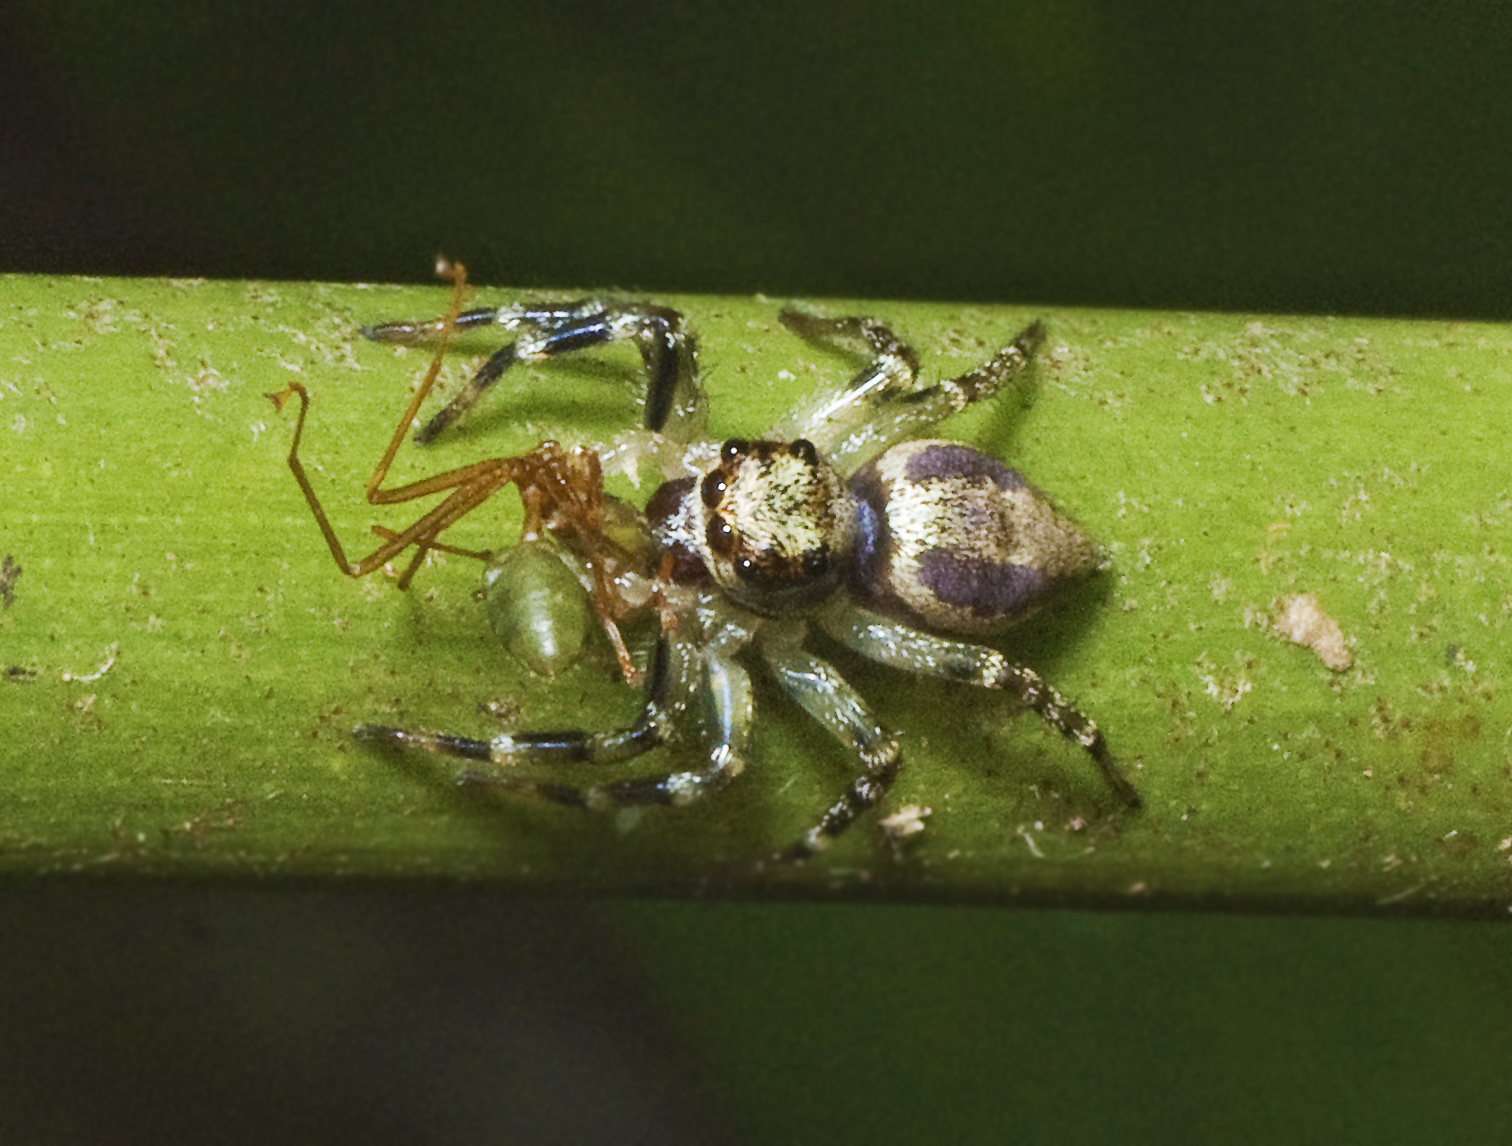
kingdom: Animalia
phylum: Arthropoda
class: Arachnida
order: Araneae
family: Salticidae
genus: Zenodorus
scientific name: Zenodorus swiftorum
